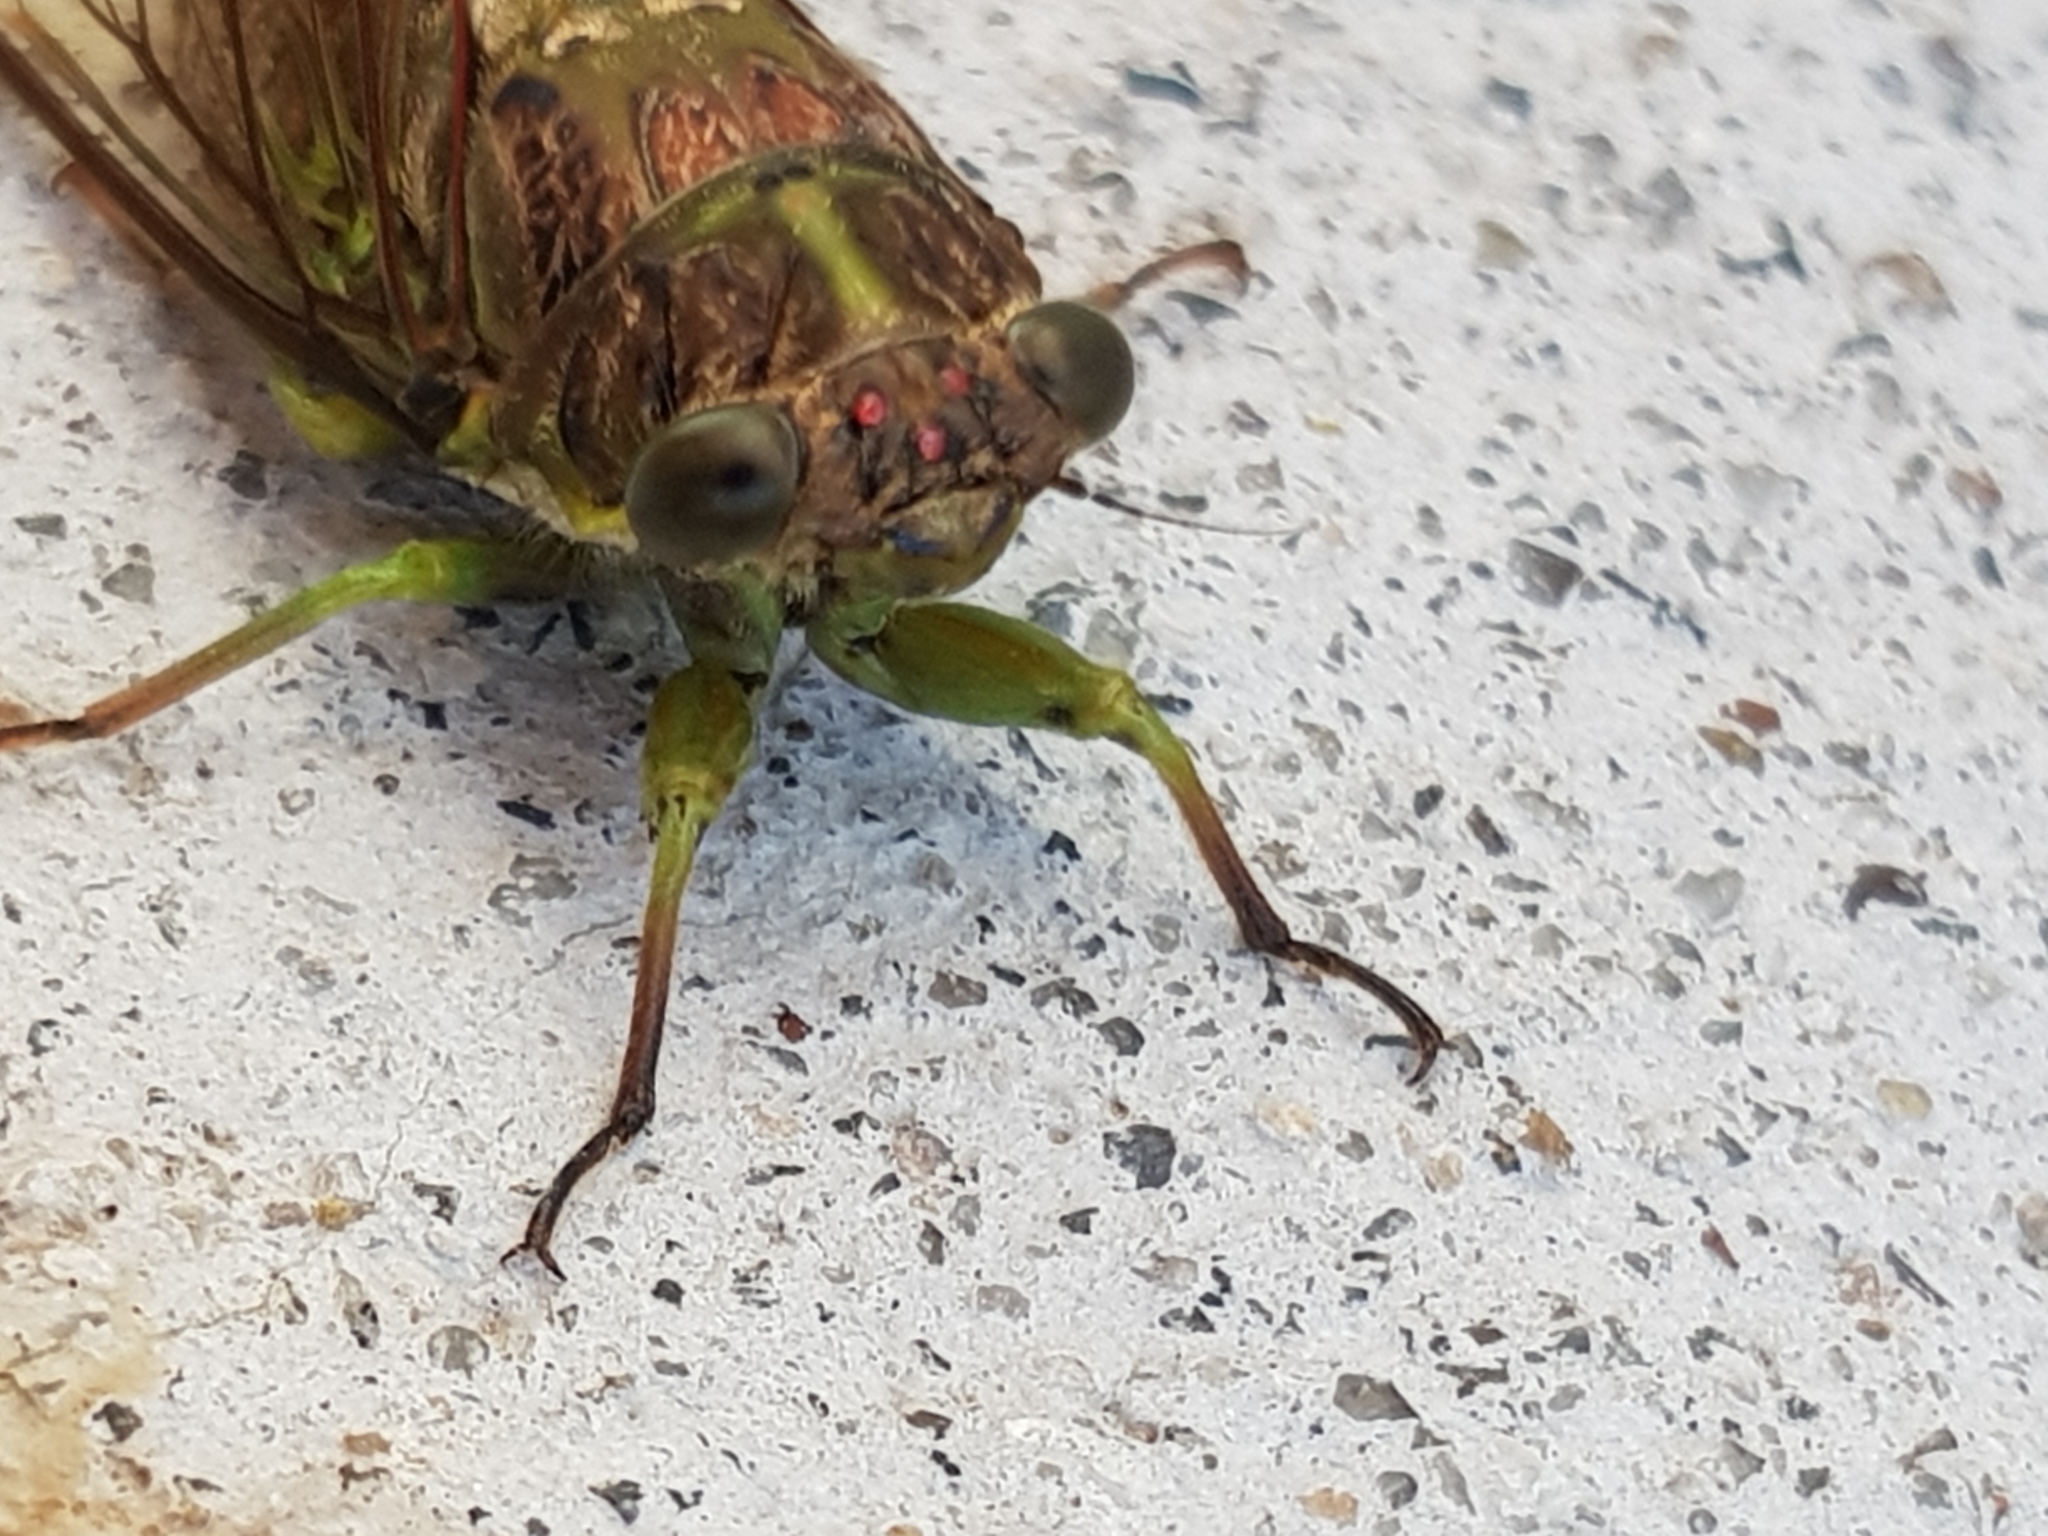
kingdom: Animalia
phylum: Arthropoda
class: Insecta
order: Hemiptera
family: Cicadidae
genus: Kikihia
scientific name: Kikihia scutellaris
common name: Lesser bronze cicada
